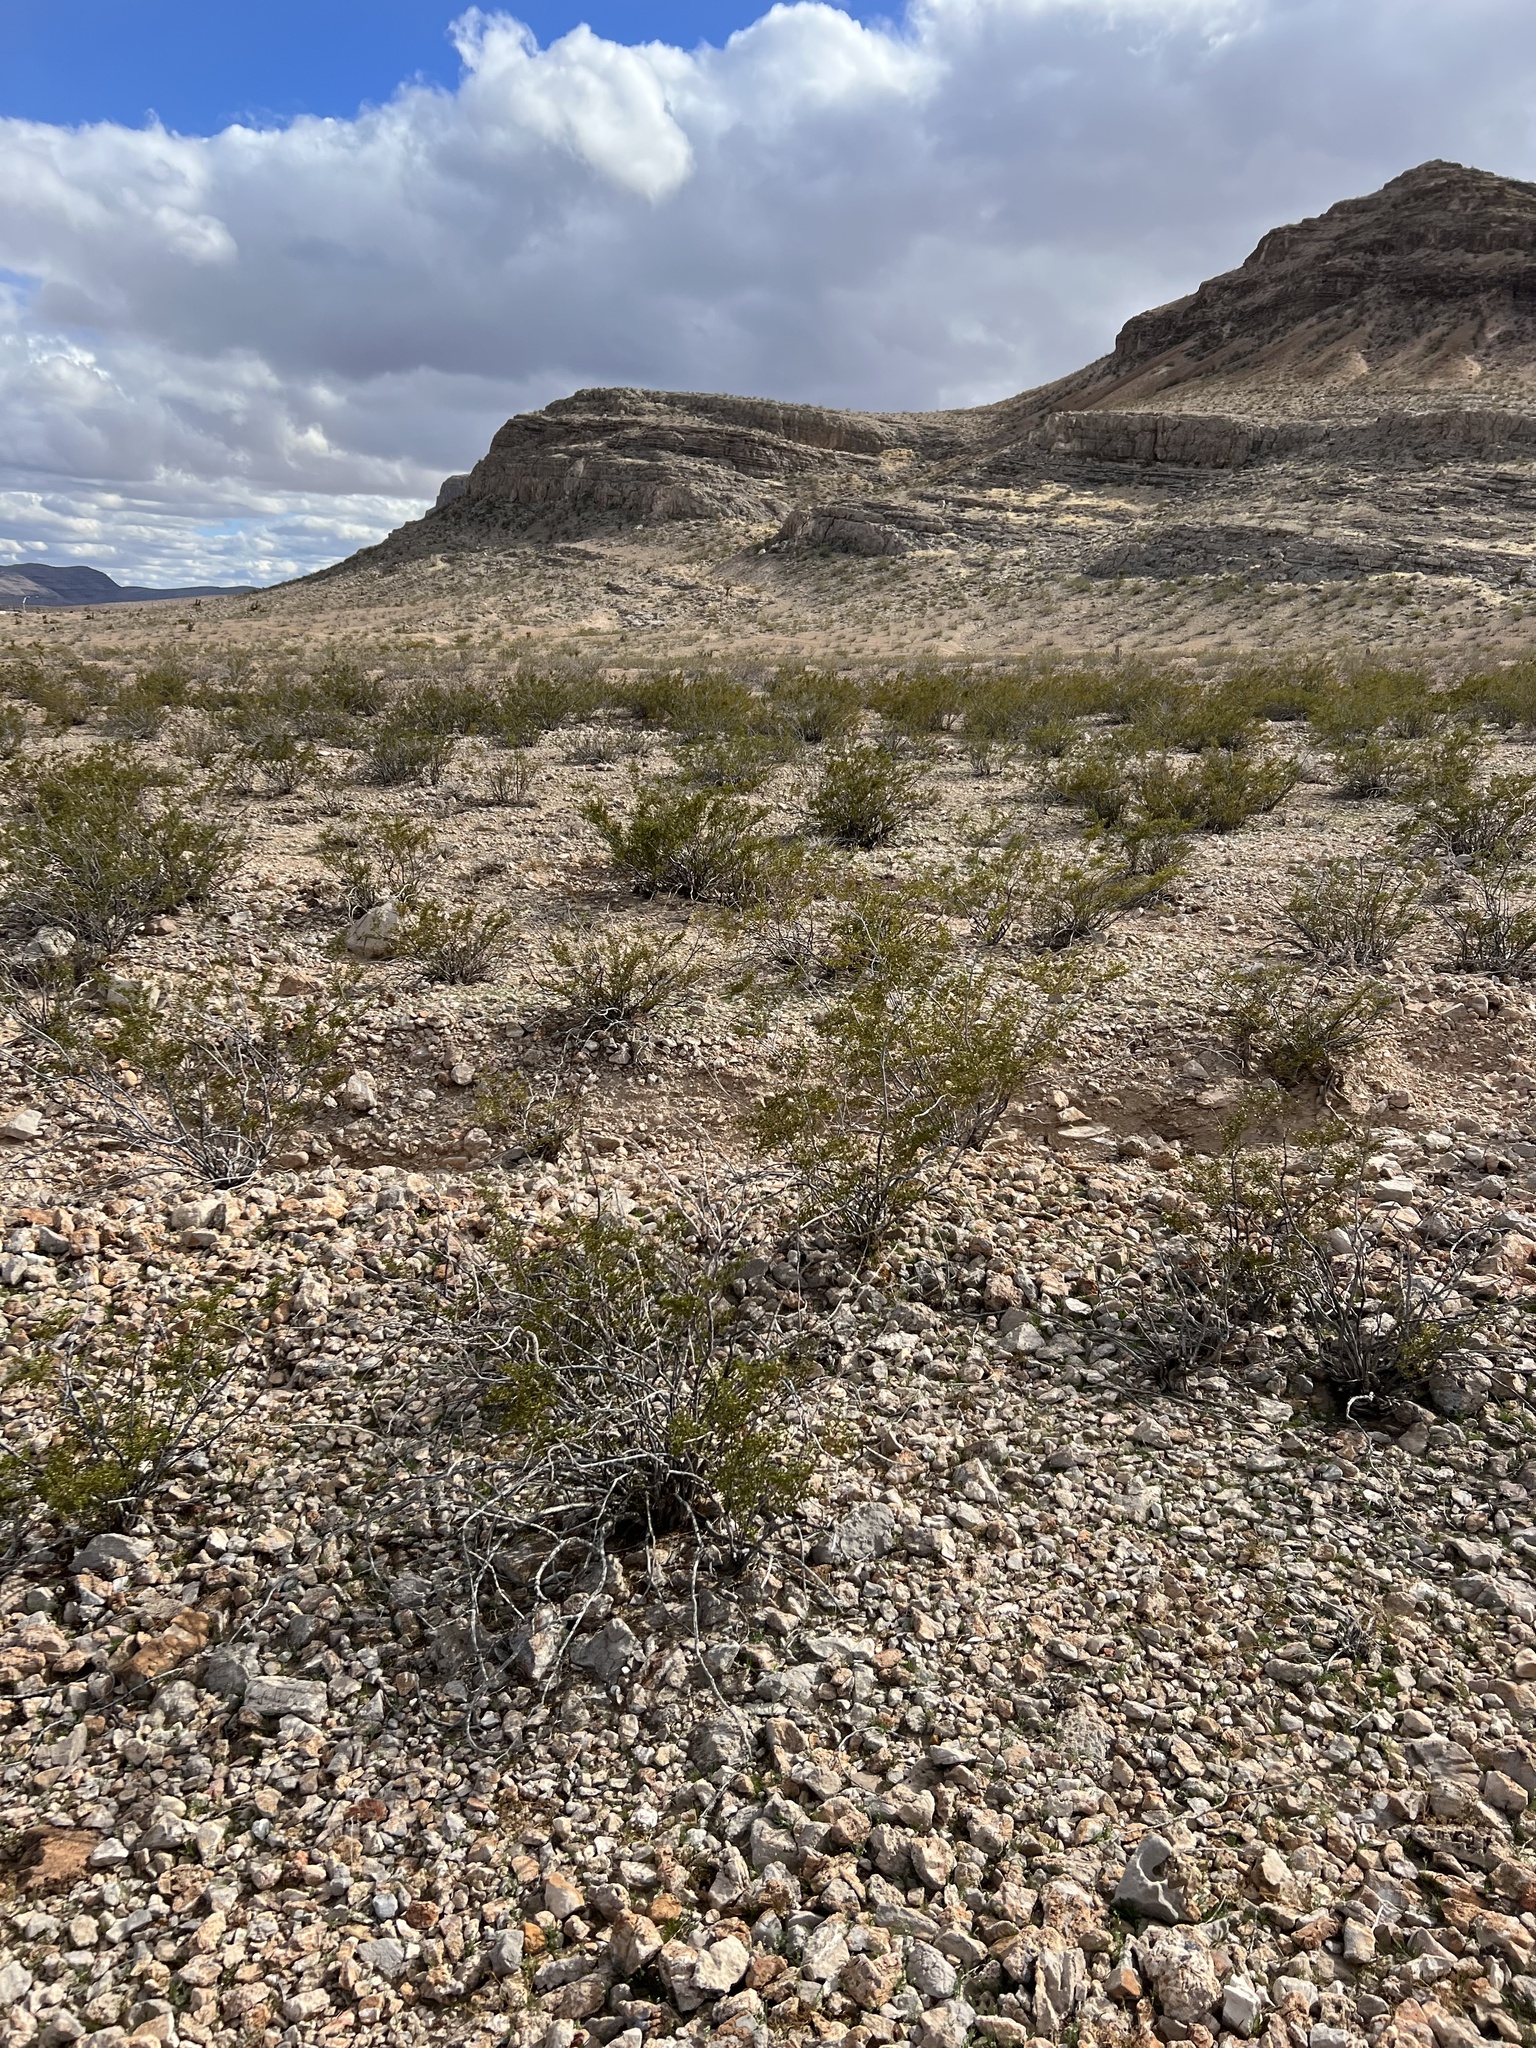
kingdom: Plantae
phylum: Tracheophyta
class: Magnoliopsida
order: Zygophyllales
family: Zygophyllaceae
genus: Larrea
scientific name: Larrea tridentata
